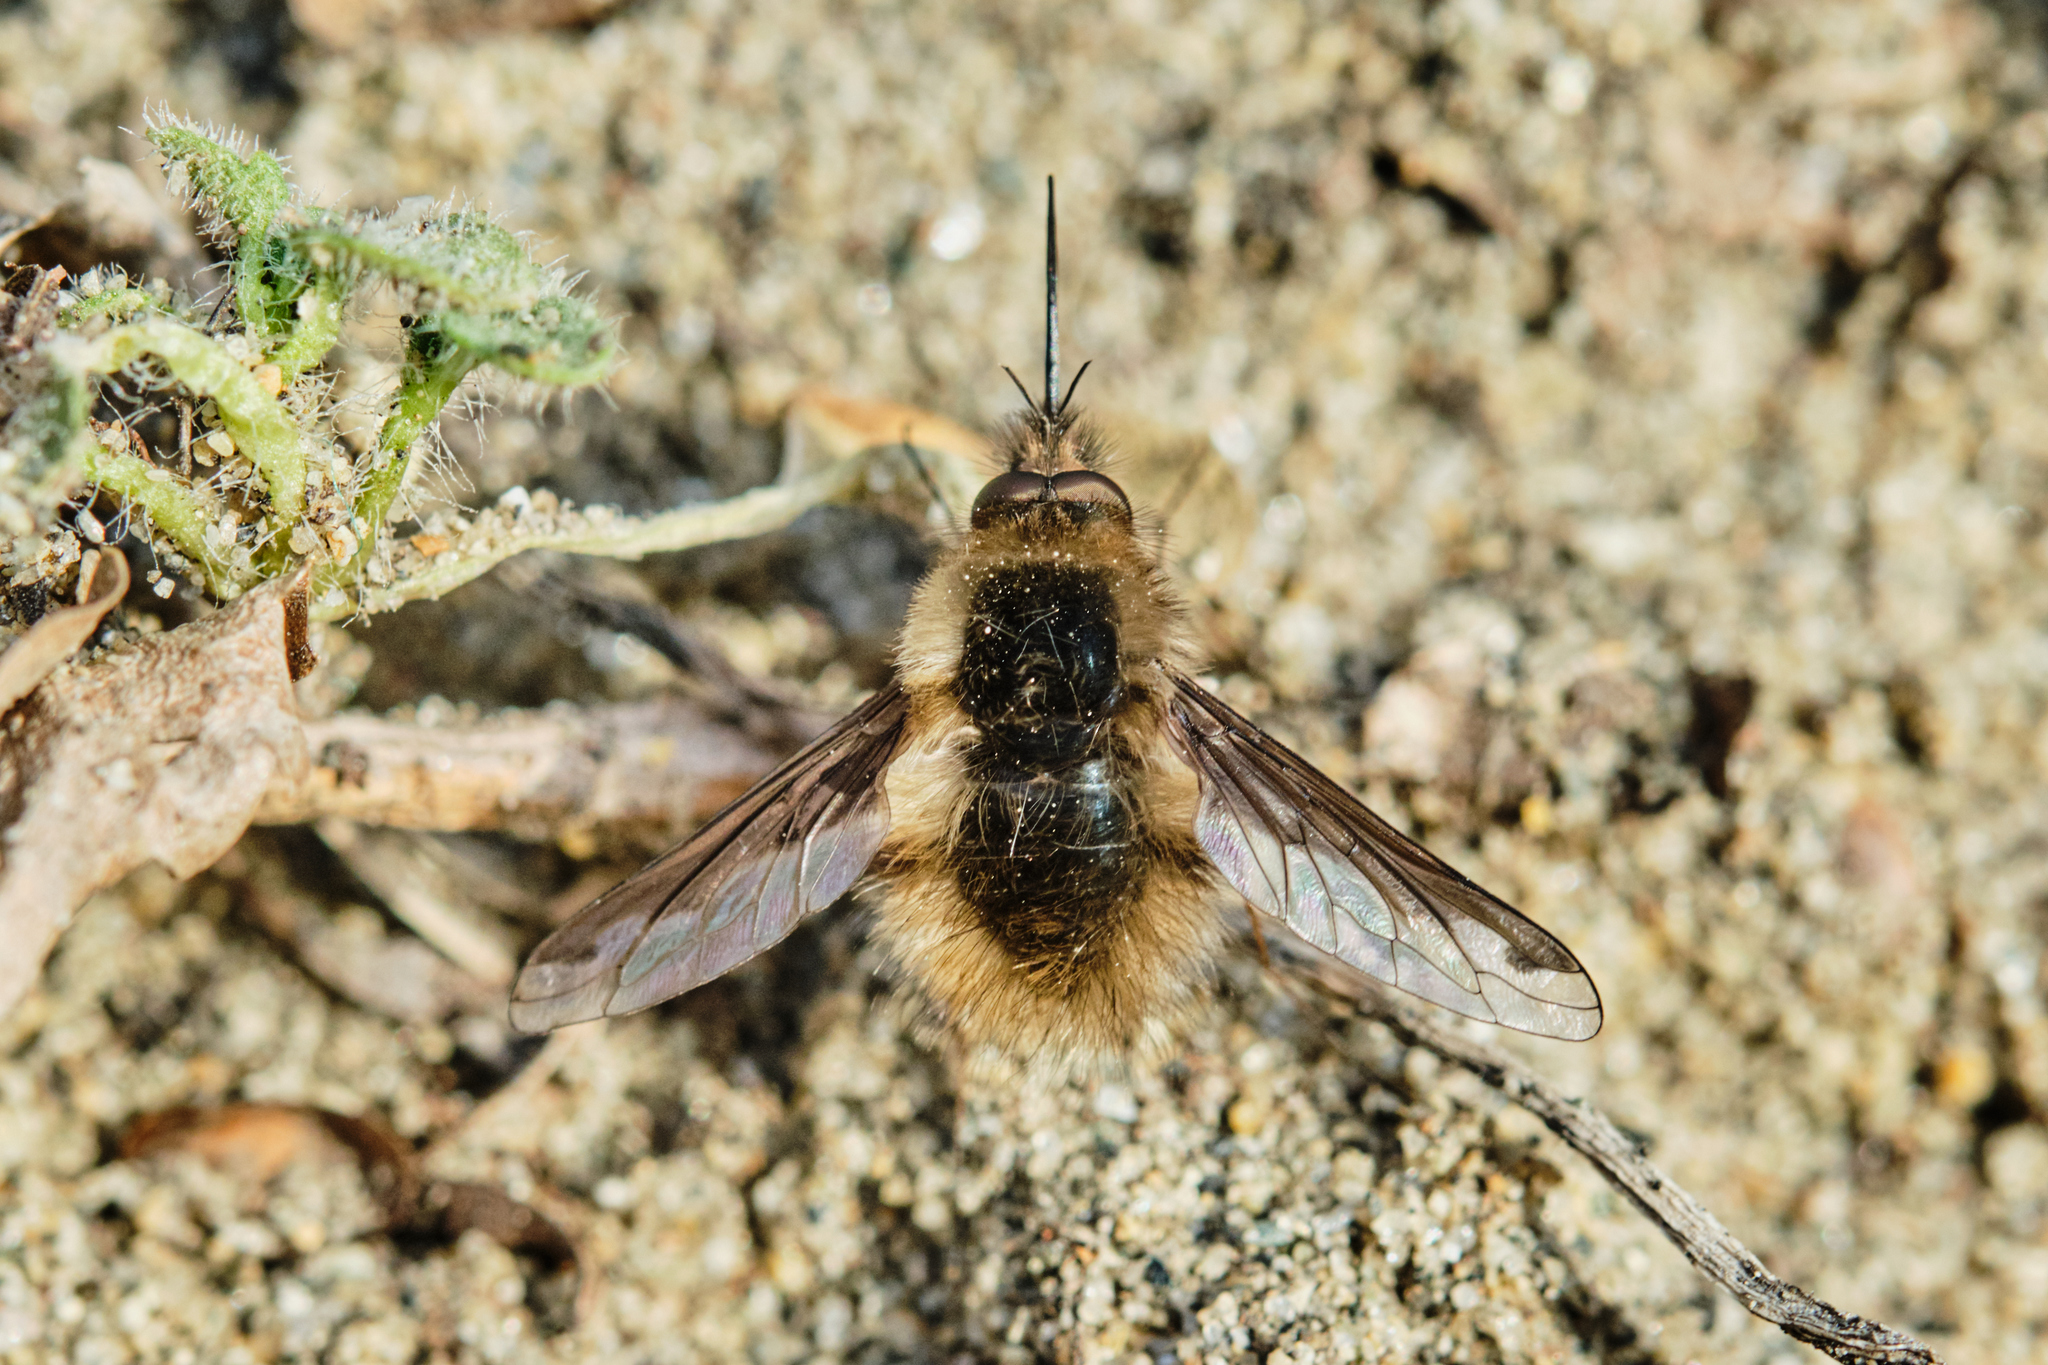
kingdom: Animalia
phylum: Arthropoda
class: Insecta
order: Diptera
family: Bombyliidae
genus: Bombylius
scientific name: Bombylius major
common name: Bee fly
